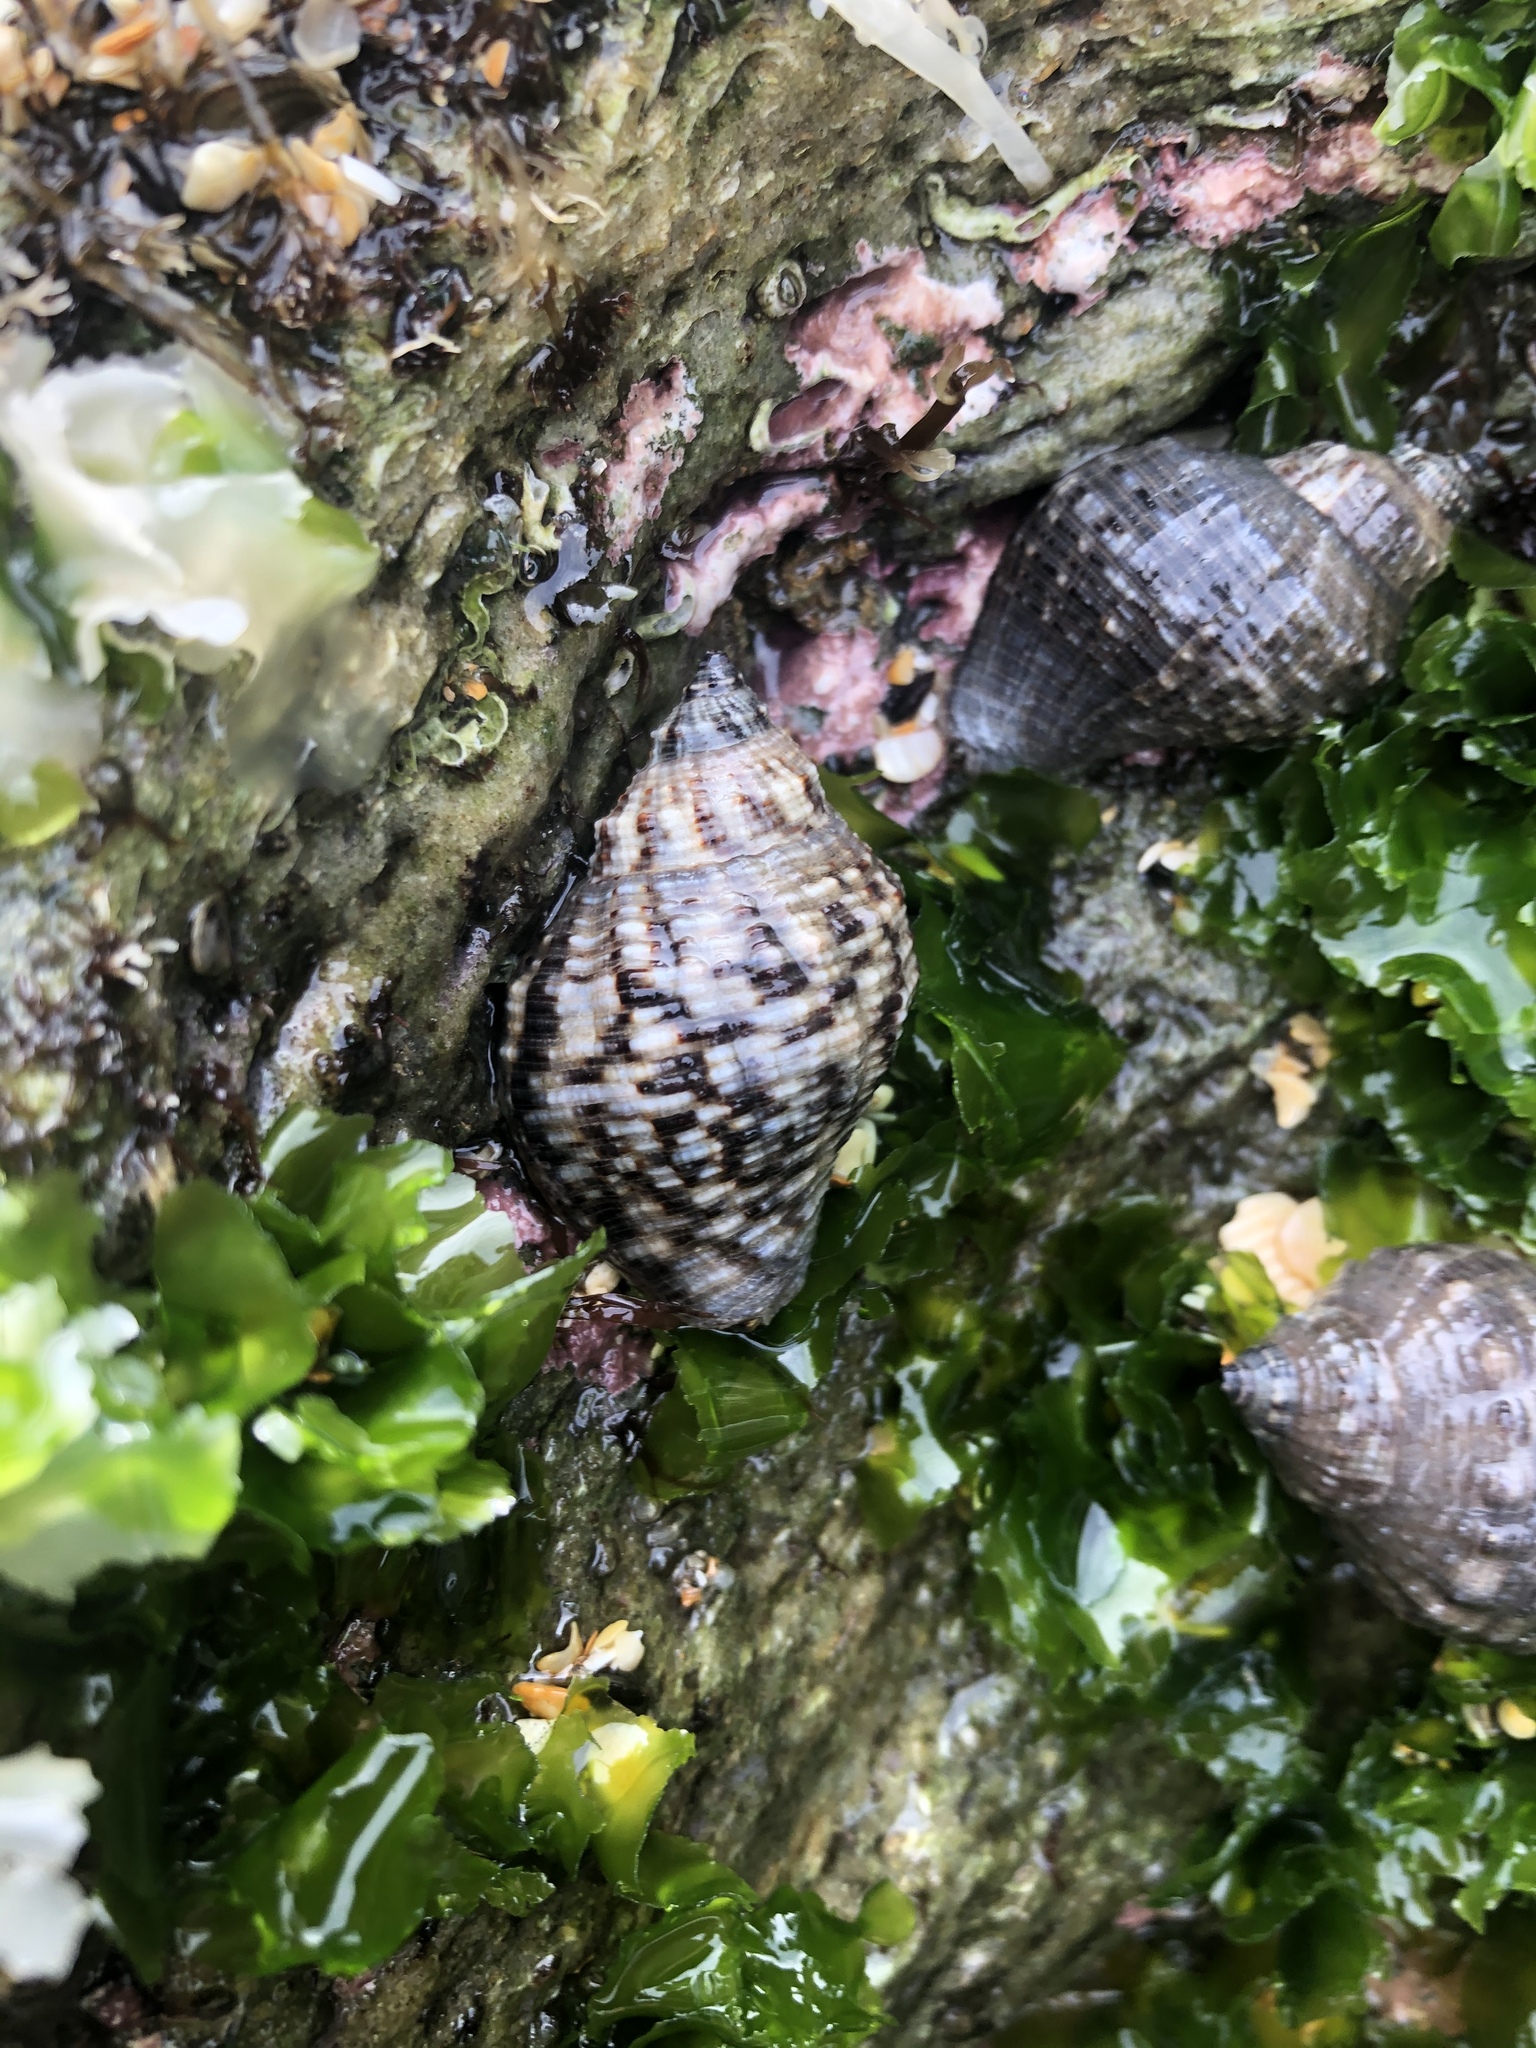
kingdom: Animalia
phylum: Mollusca
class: Gastropoda
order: Neogastropoda
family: Muricidae
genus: Stramonita
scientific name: Stramonita floridana
